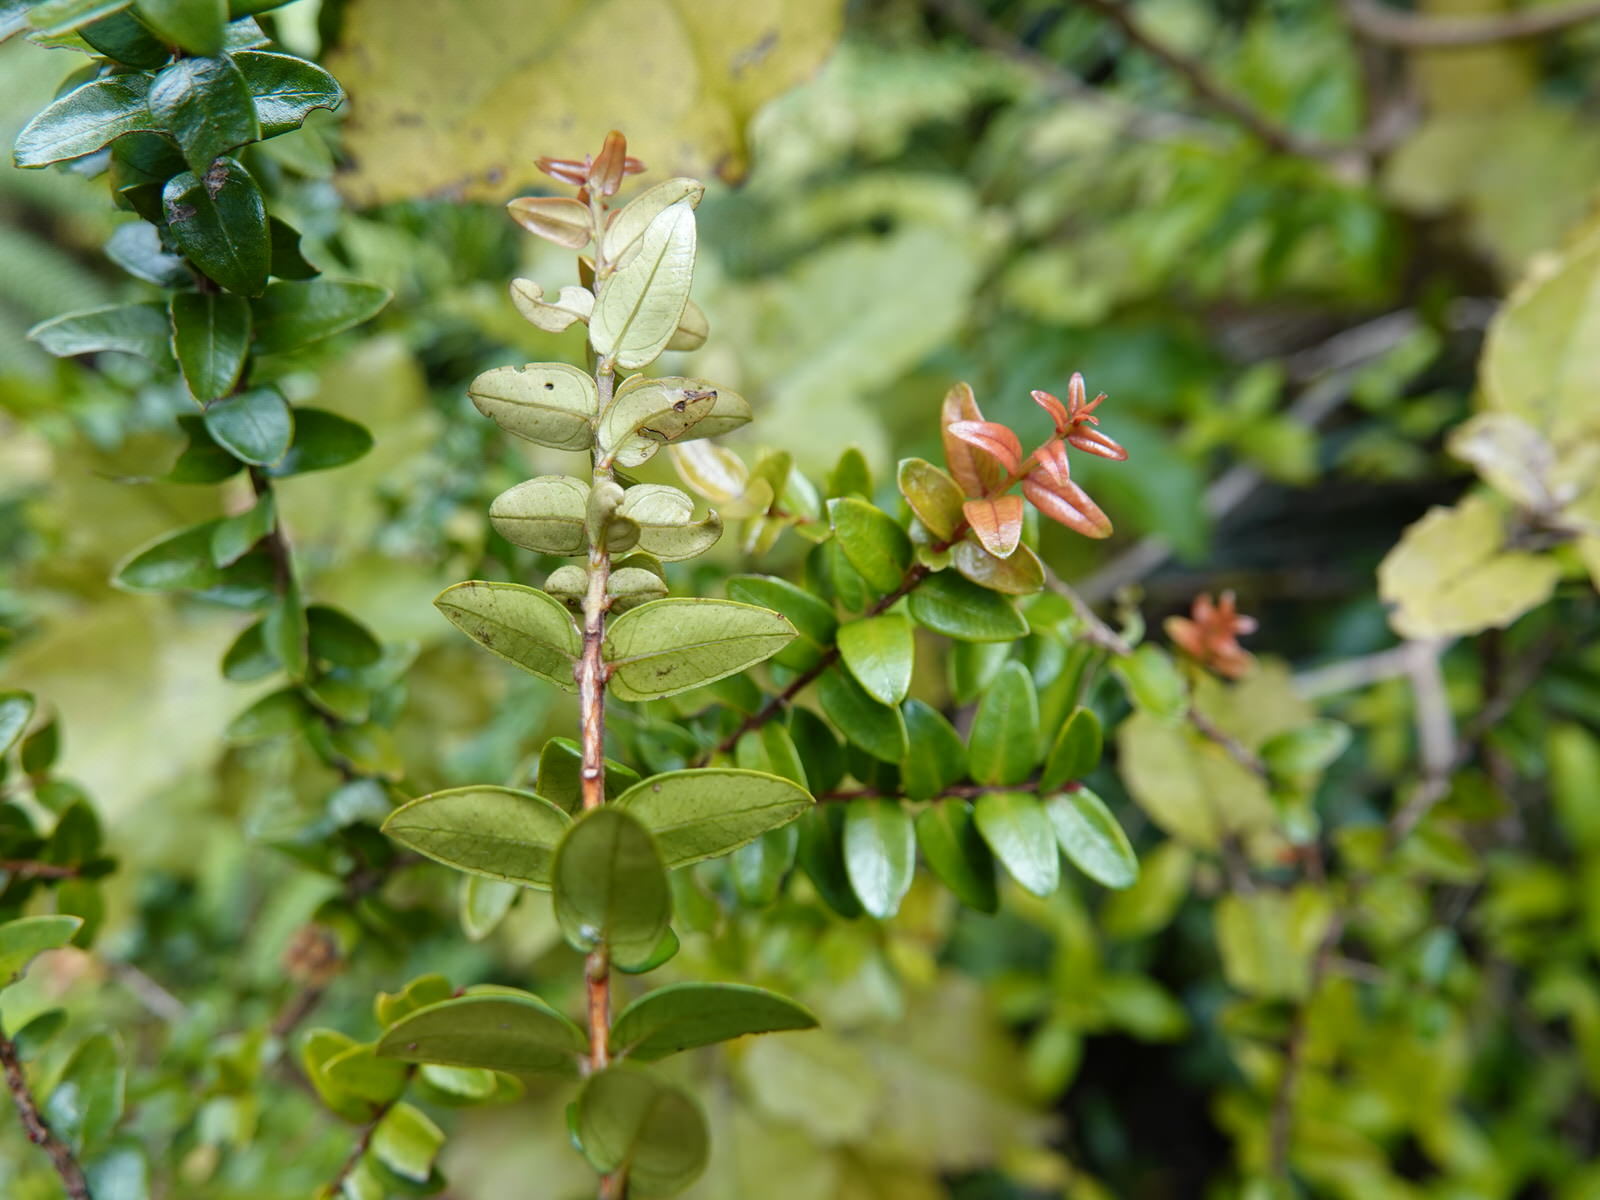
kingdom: Plantae
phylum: Tracheophyta
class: Magnoliopsida
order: Myrtales
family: Myrtaceae
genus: Metrosideros
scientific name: Metrosideros diffusa
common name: Small ratavine
